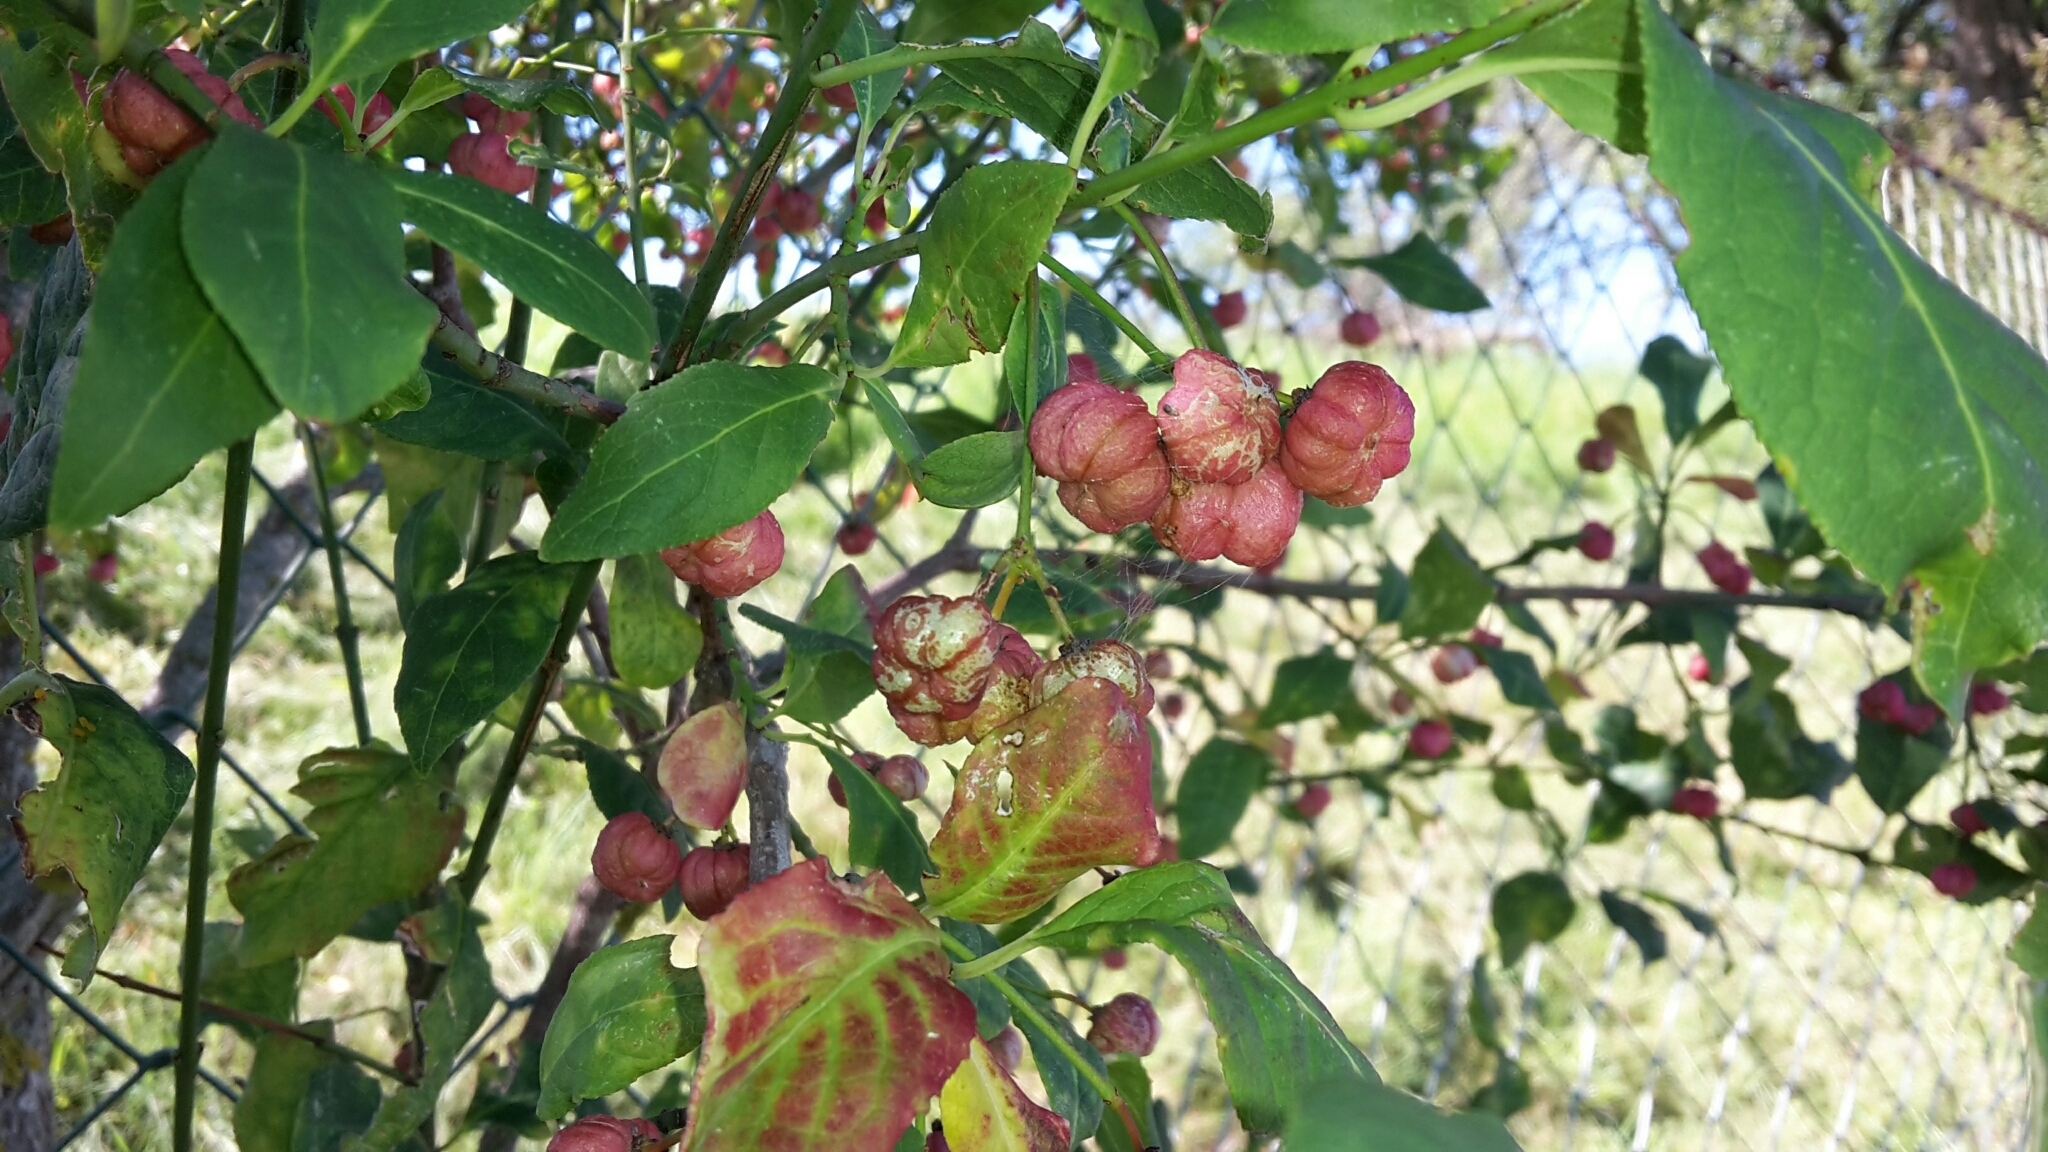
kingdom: Plantae
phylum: Tracheophyta
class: Magnoliopsida
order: Celastrales
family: Celastraceae
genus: Euonymus
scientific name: Euonymus europaeus
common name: Spindle
